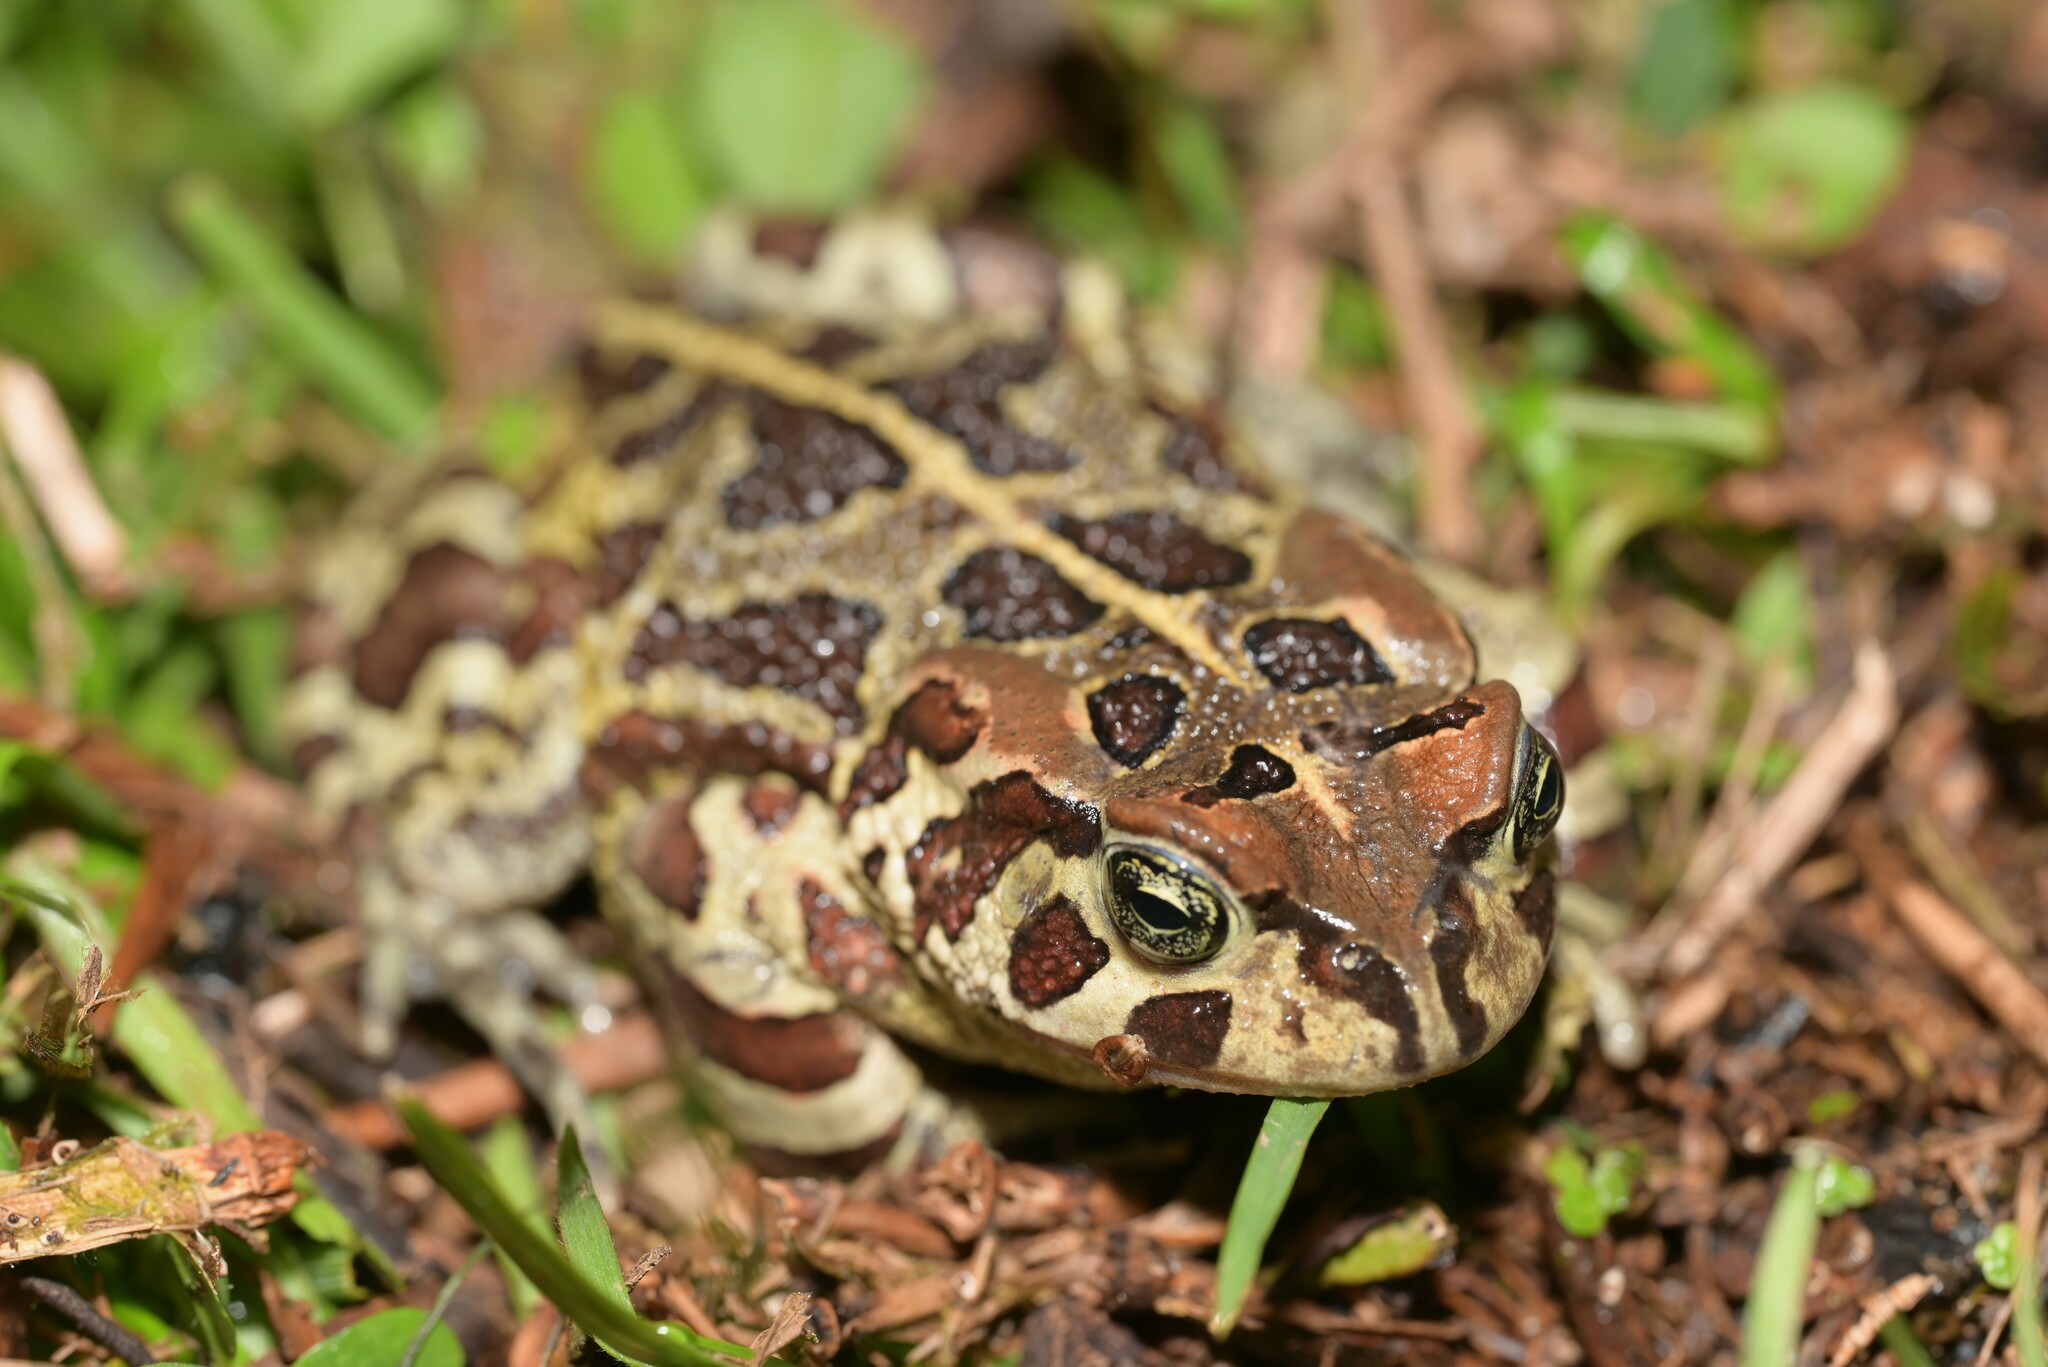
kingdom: Animalia
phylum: Chordata
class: Amphibia
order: Anura
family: Bufonidae
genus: Sclerophrys
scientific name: Sclerophrys pantherina
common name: Panther toad
